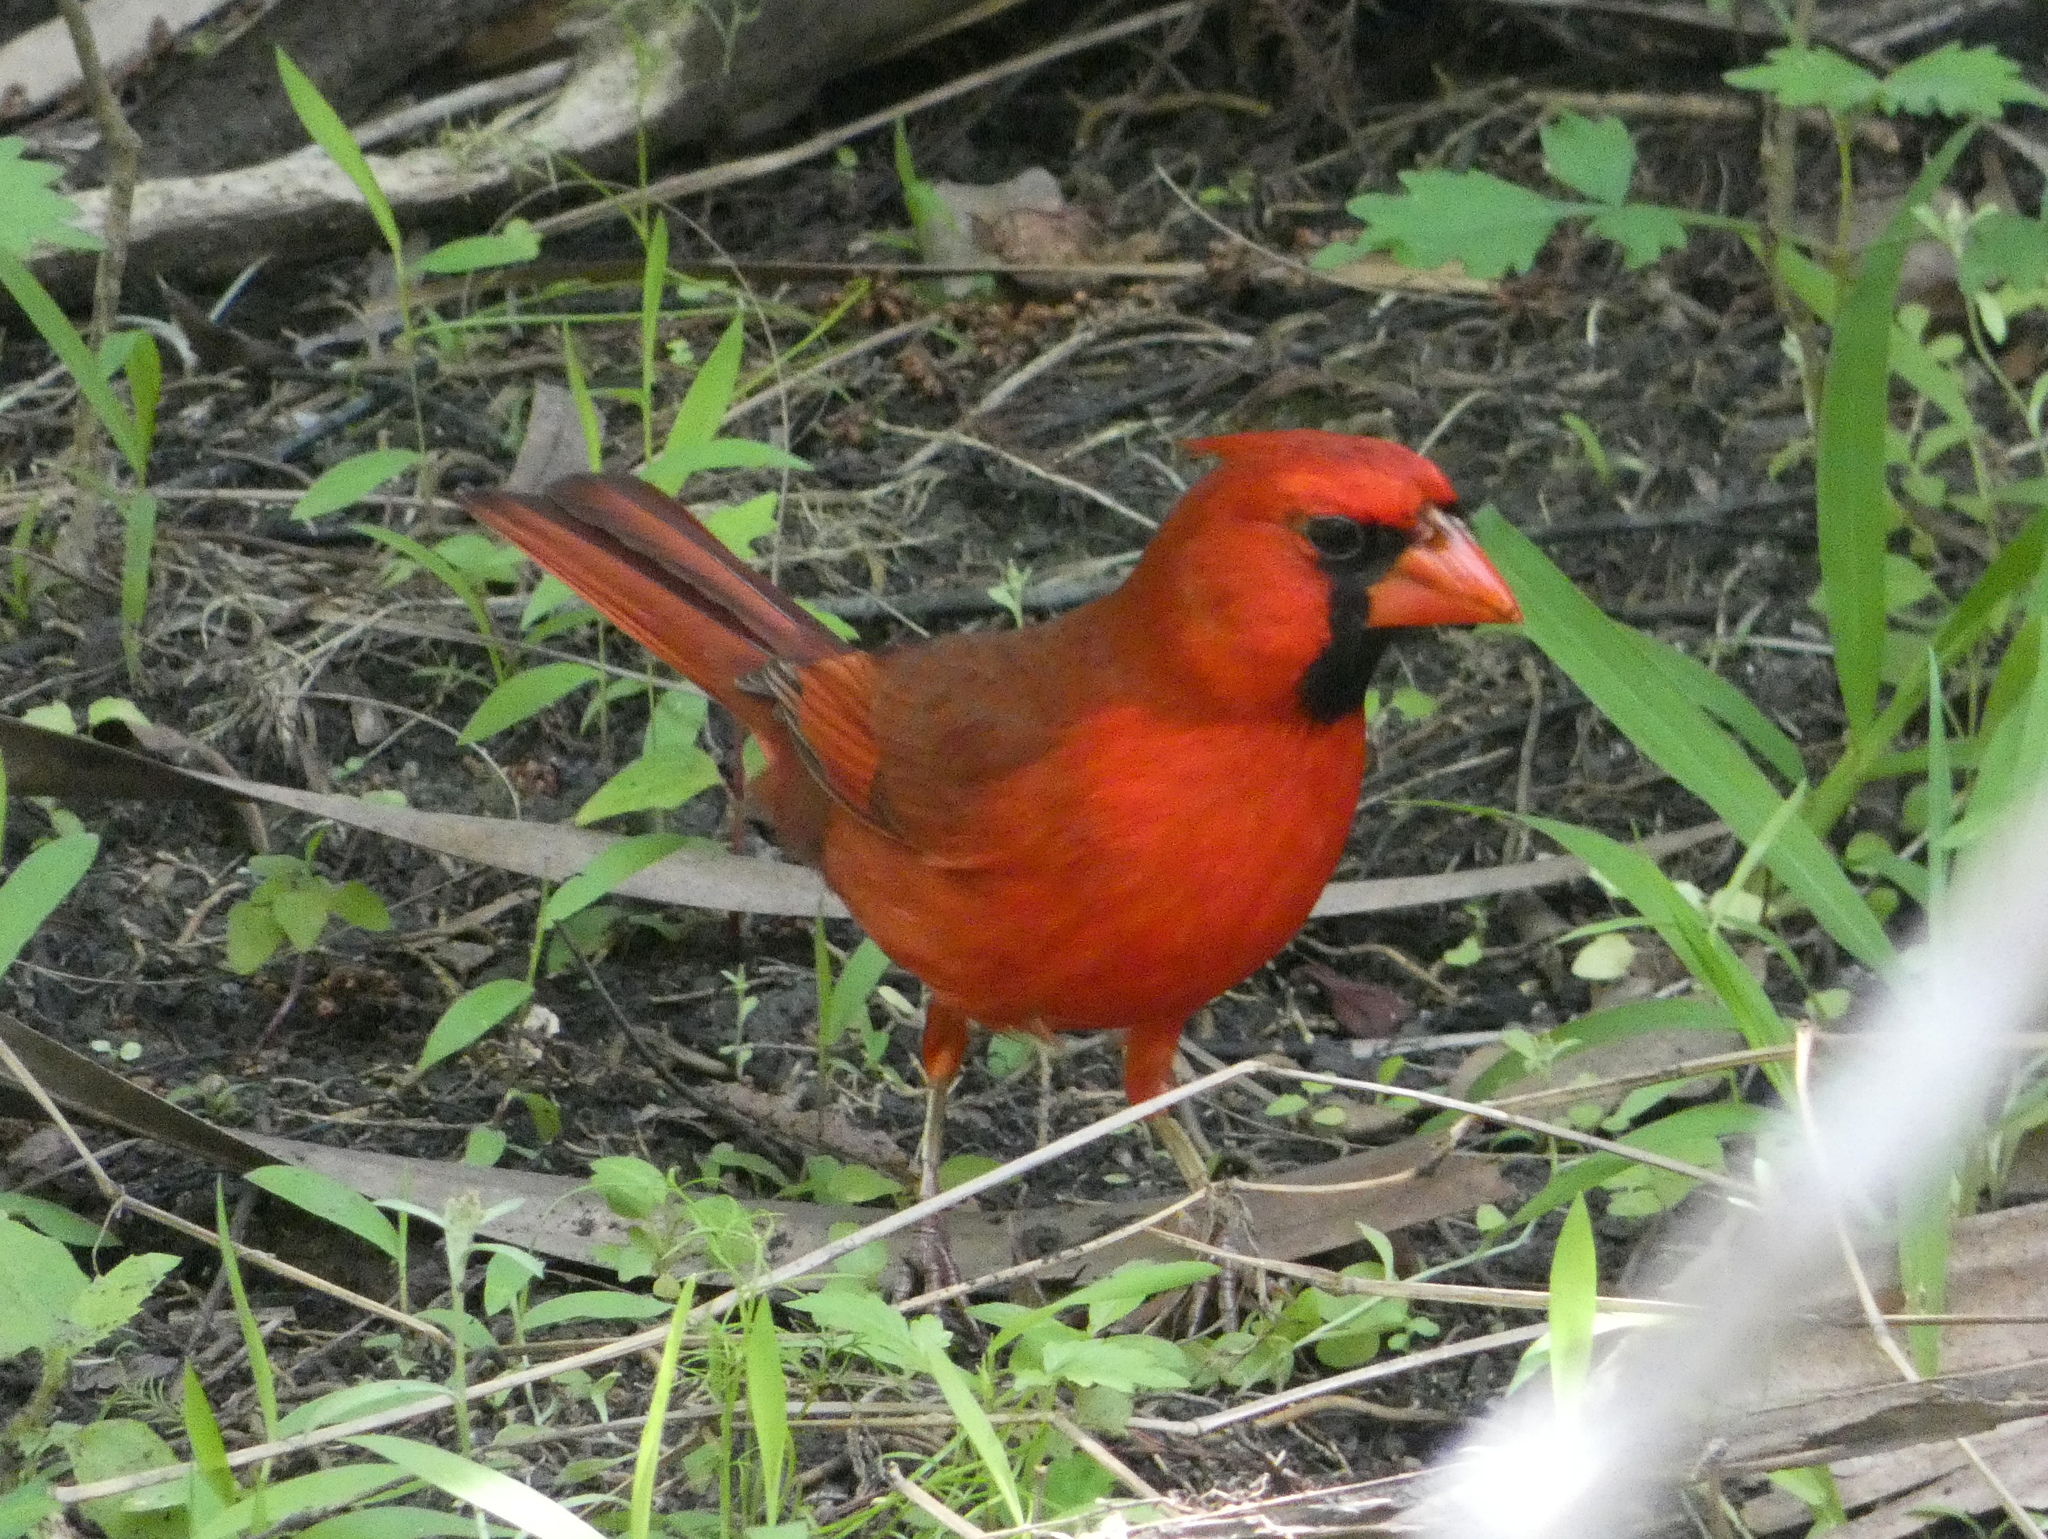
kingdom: Animalia
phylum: Chordata
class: Aves
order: Passeriformes
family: Cardinalidae
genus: Cardinalis
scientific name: Cardinalis cardinalis
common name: Northern cardinal
